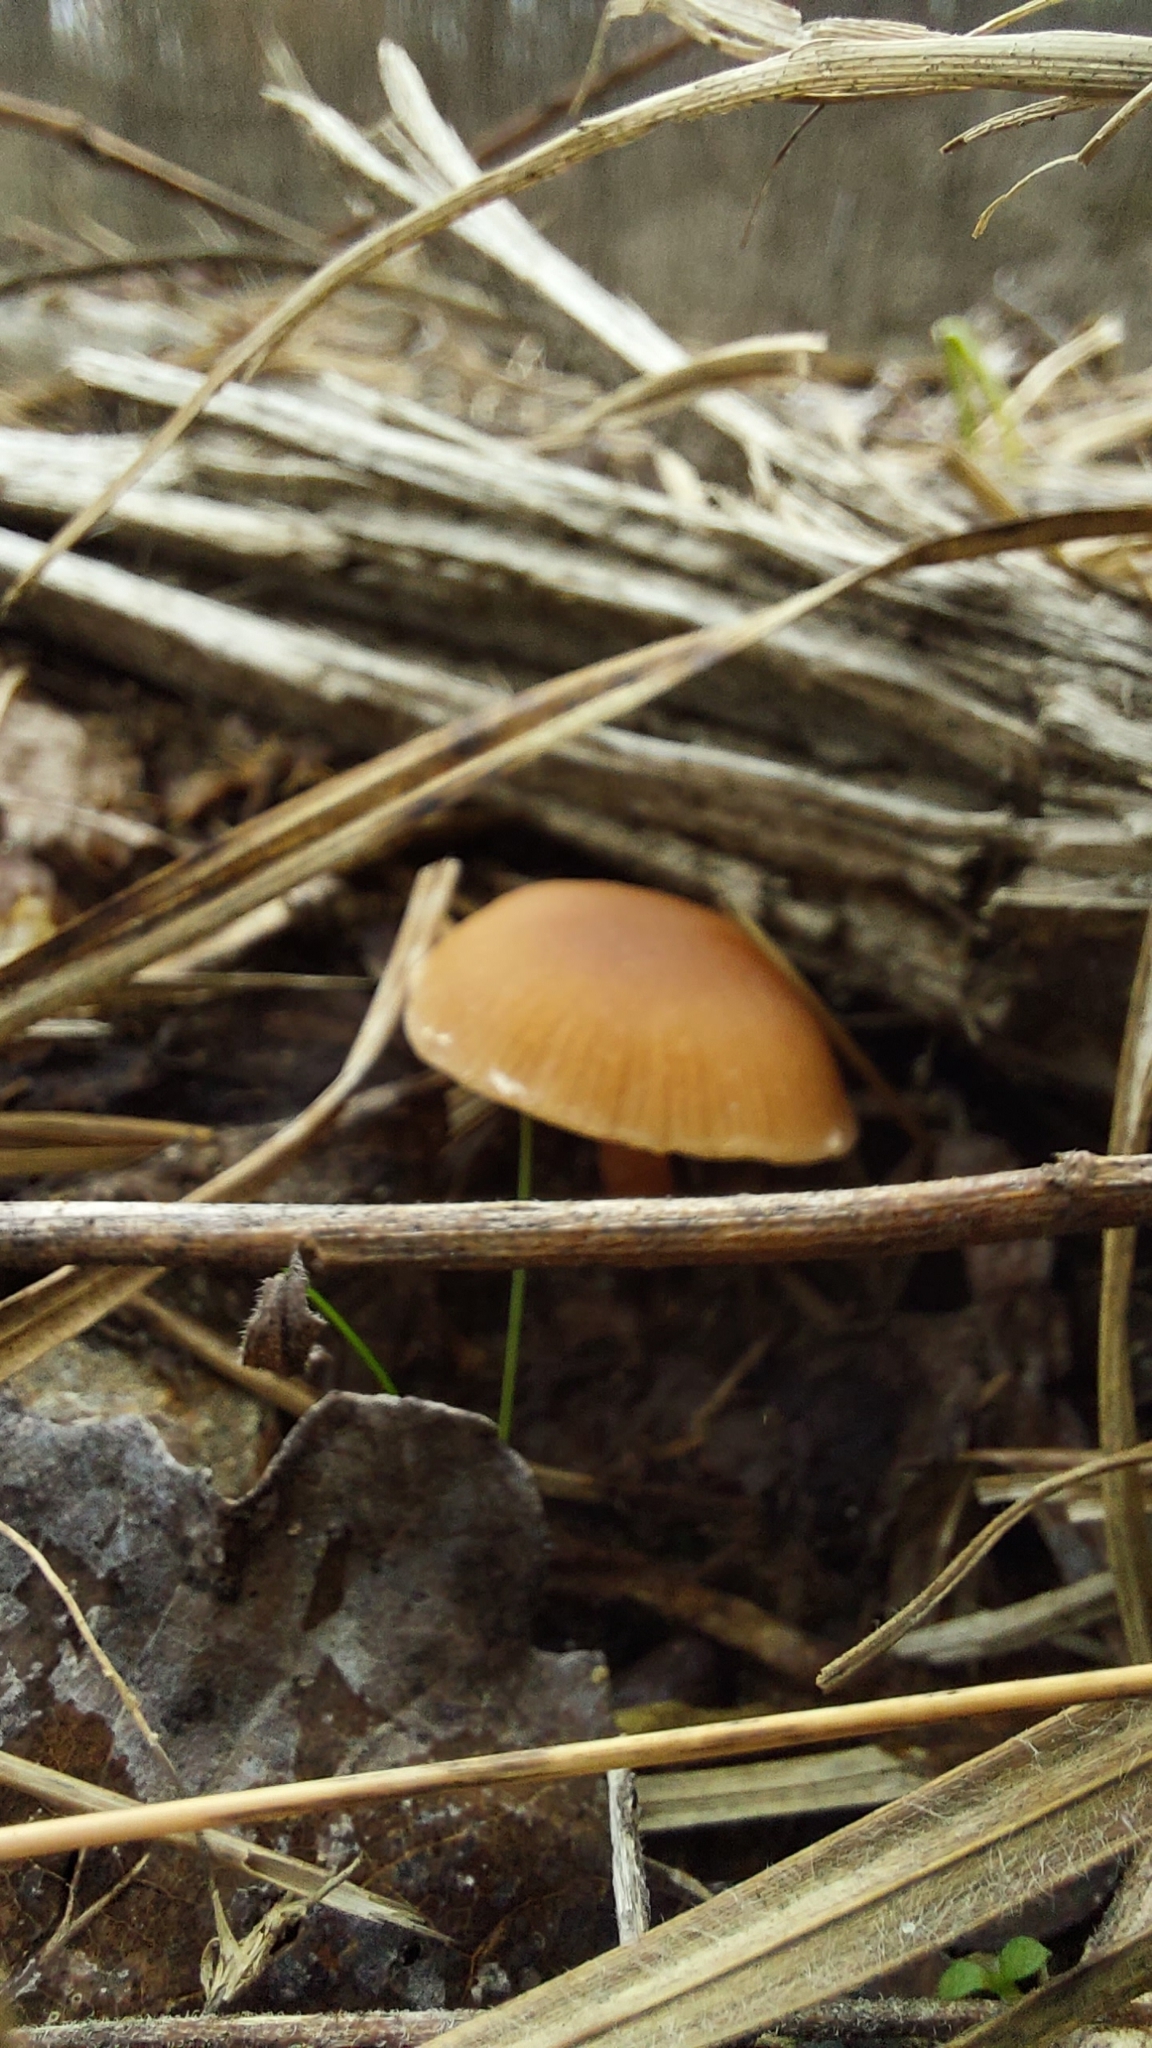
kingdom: Fungi
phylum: Basidiomycota
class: Agaricomycetes
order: Agaricales
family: Physalacriaceae
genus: Flammulina
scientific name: Flammulina
